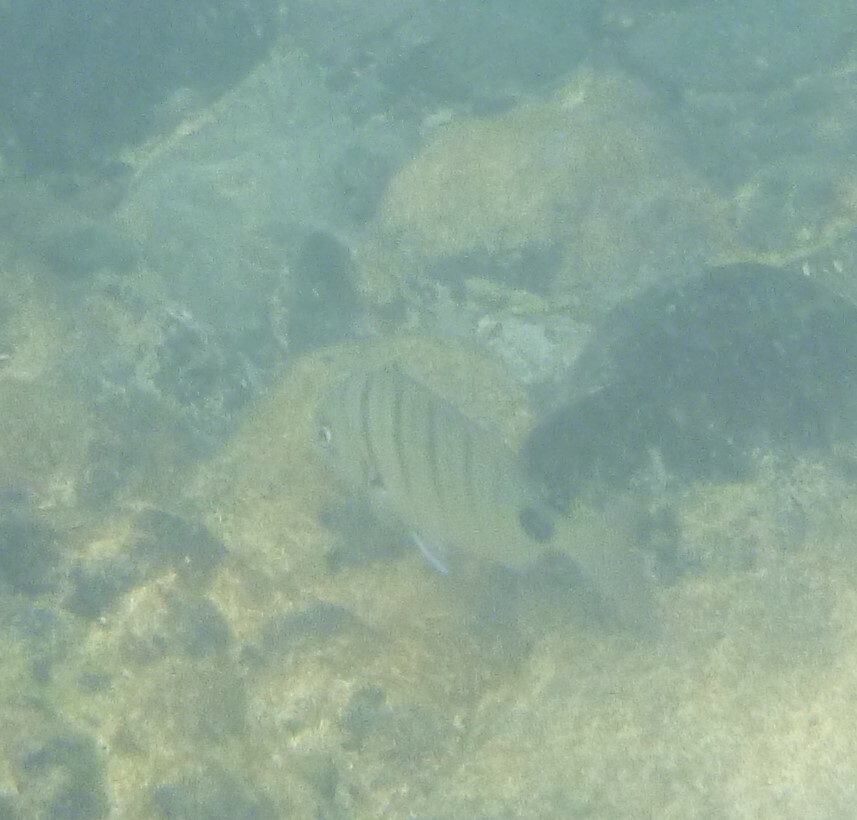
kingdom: Animalia
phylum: Chordata
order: Perciformes
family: Sparidae
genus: Diplodus
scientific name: Diplodus cadenati
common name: Moroccan white seabream
